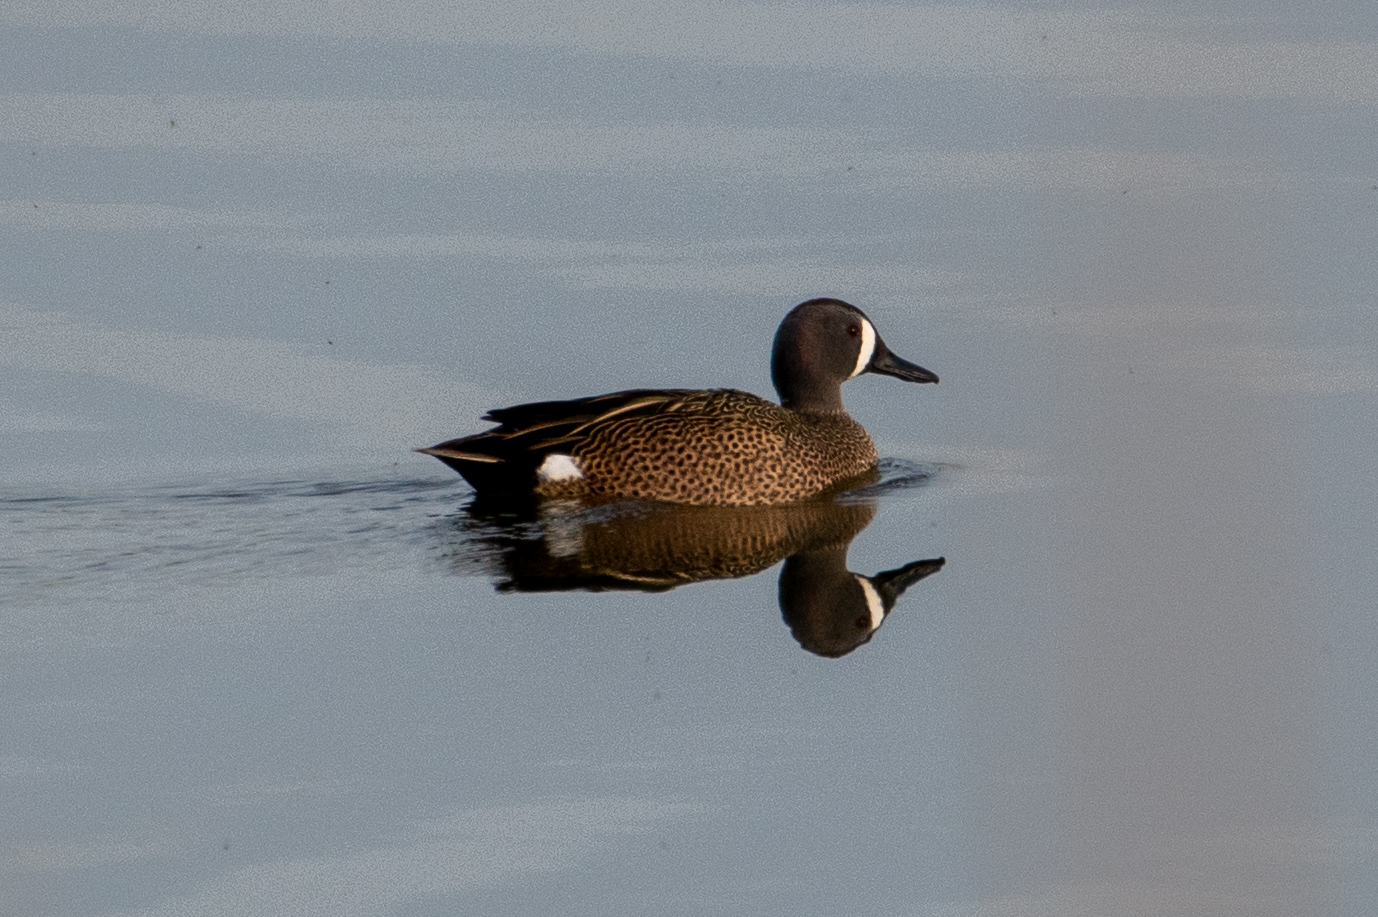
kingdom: Animalia
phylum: Chordata
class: Aves
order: Anseriformes
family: Anatidae
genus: Spatula
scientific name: Spatula discors
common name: Blue-winged teal
